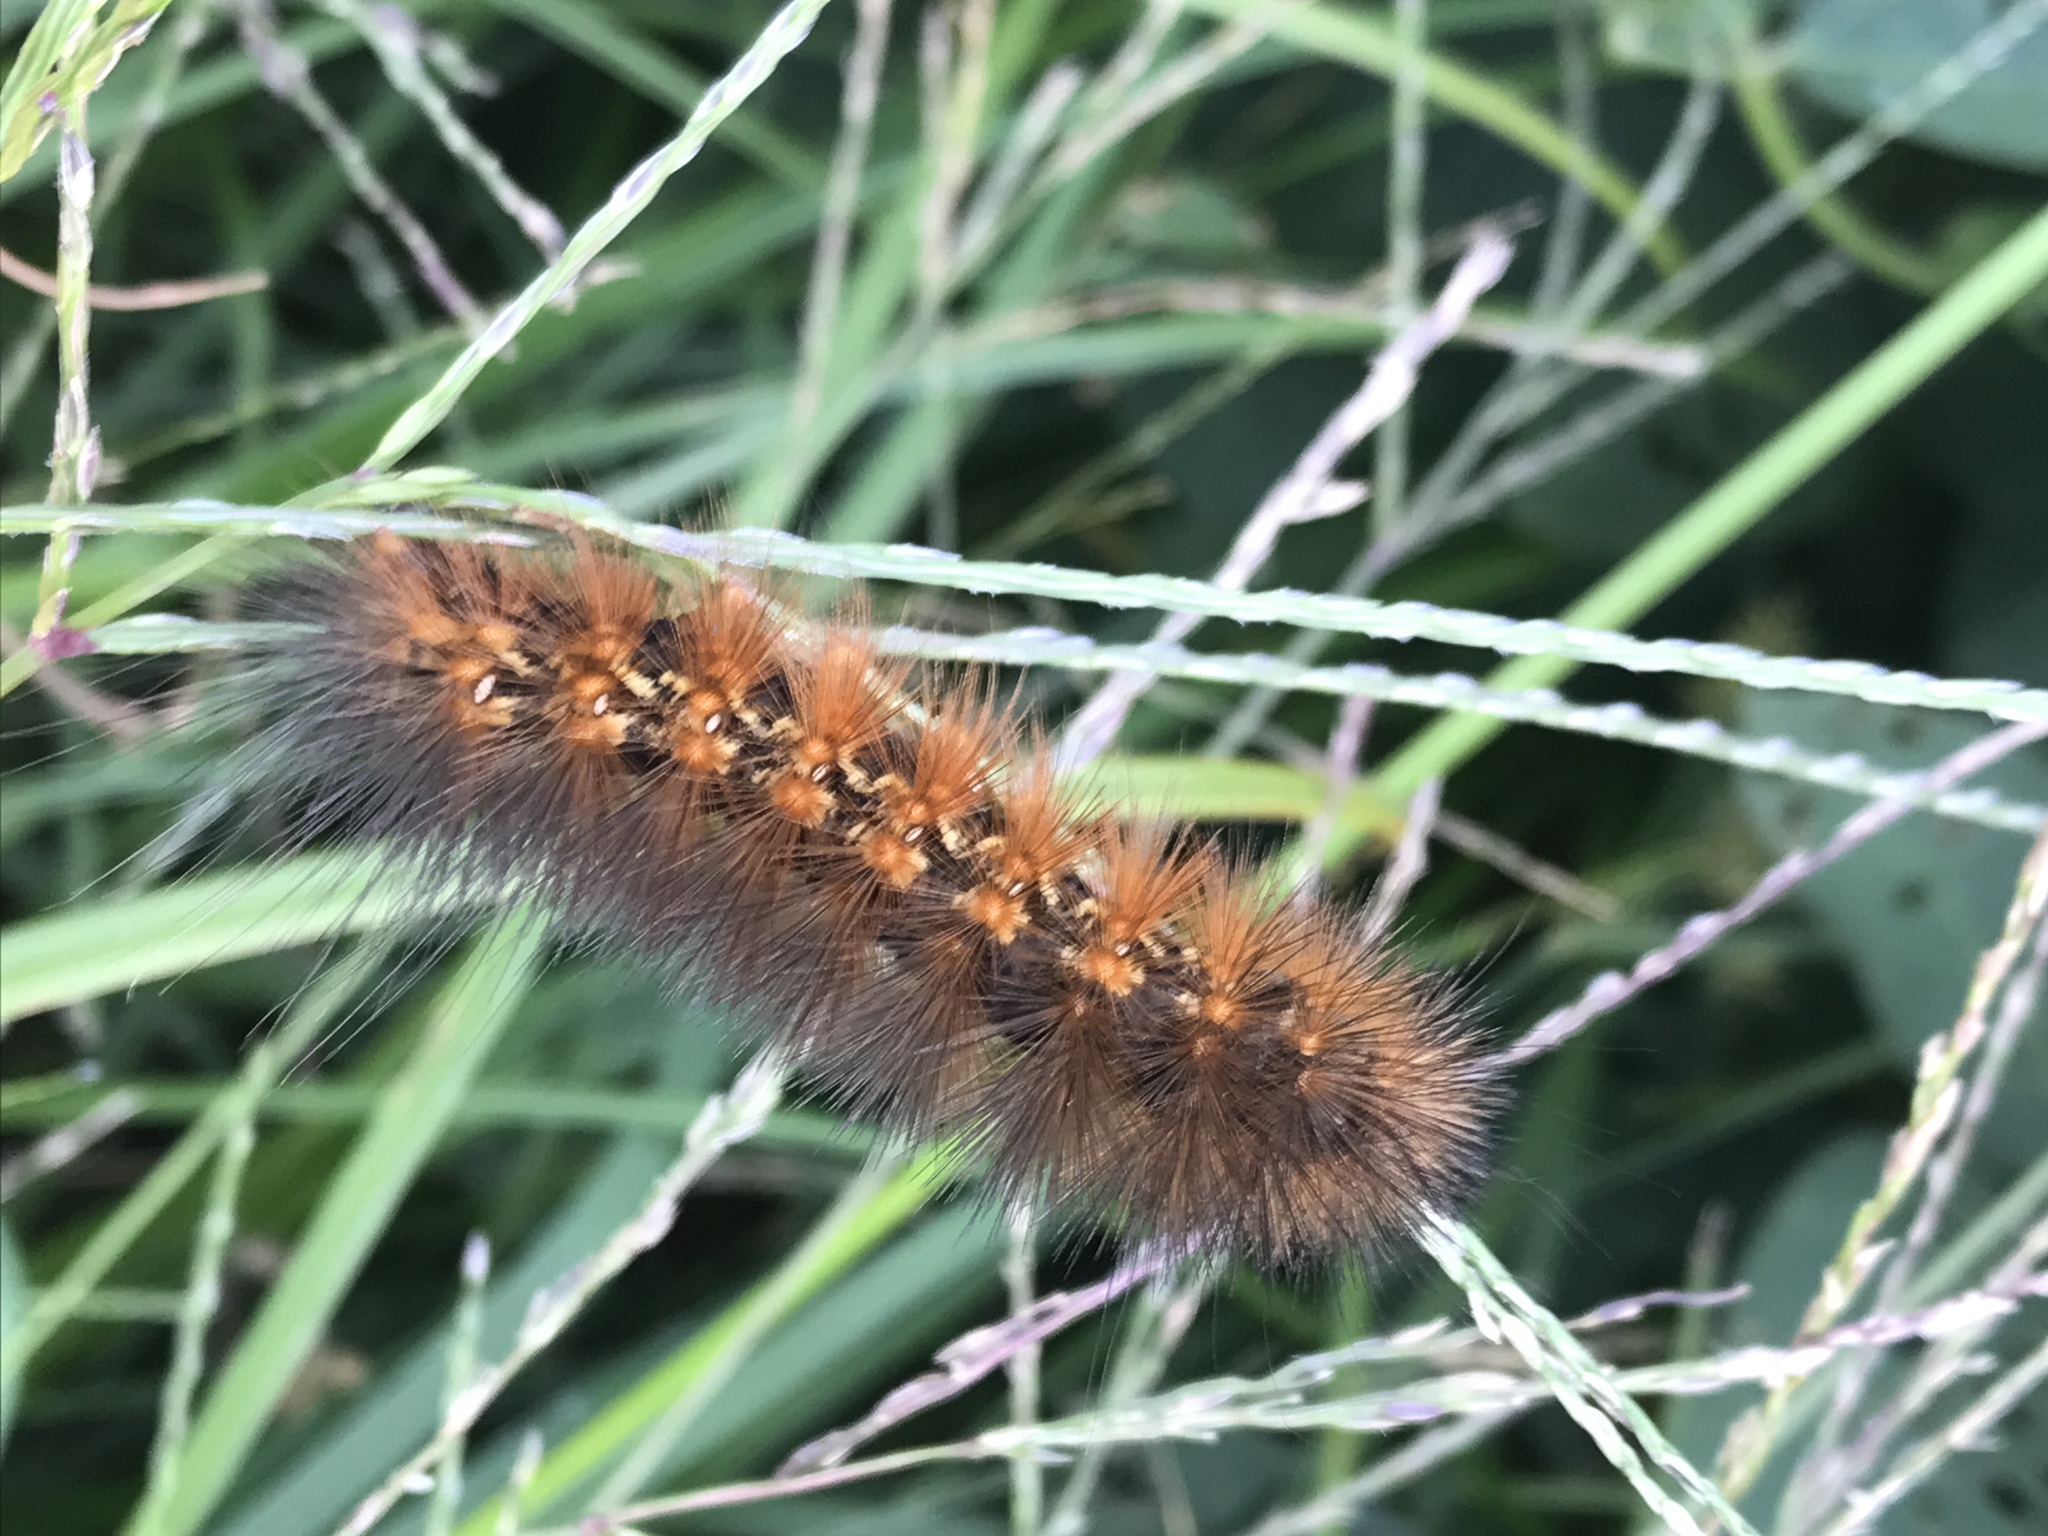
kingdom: Animalia
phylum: Arthropoda
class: Insecta
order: Lepidoptera
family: Erebidae
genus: Estigmene
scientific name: Estigmene acrea
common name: Salt marsh moth
